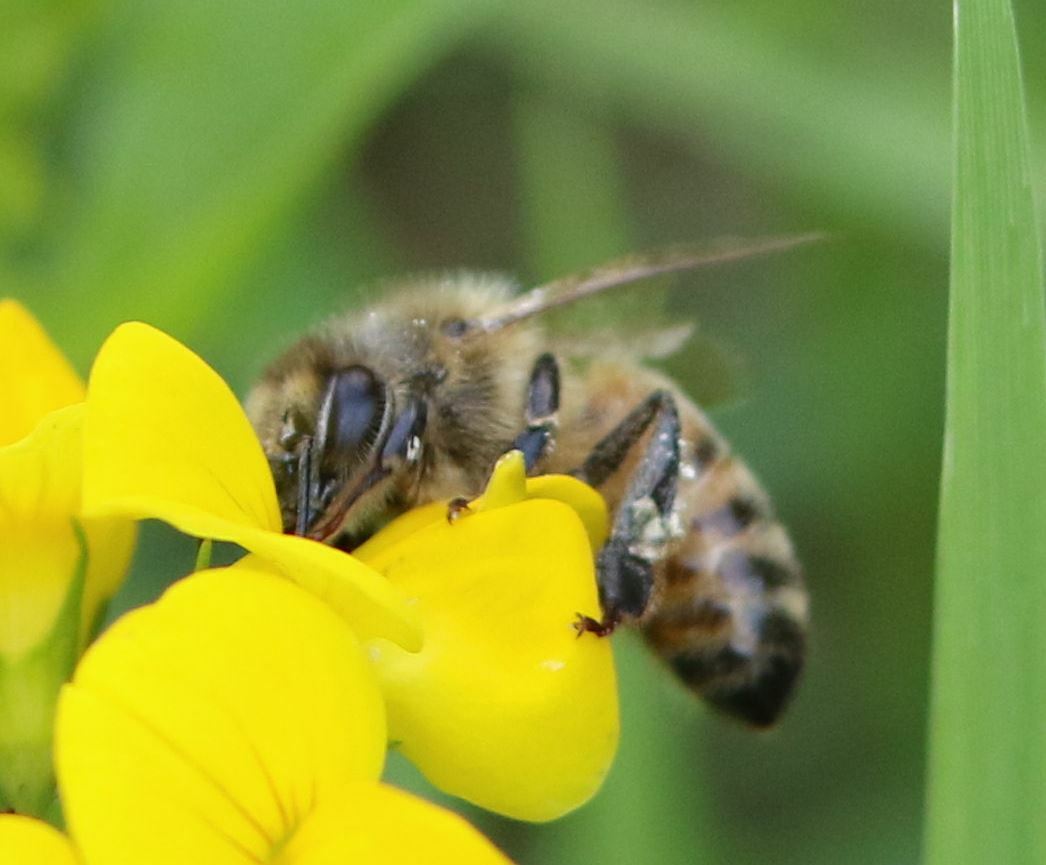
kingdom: Animalia
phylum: Arthropoda
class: Insecta
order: Hymenoptera
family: Apidae
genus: Apis
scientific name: Apis mellifera
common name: Honey bee
